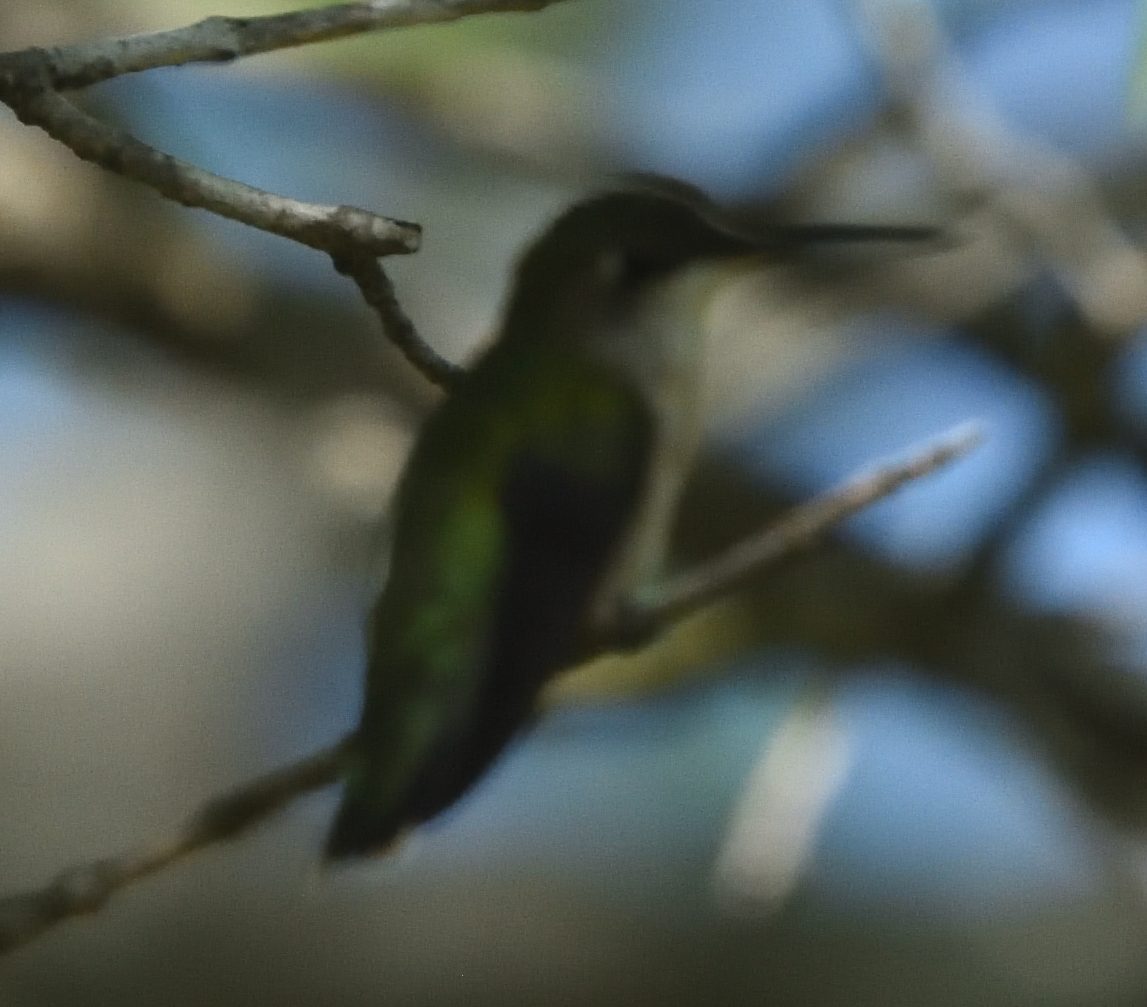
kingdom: Animalia
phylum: Chordata
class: Aves
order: Apodiformes
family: Trochilidae
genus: Archilochus
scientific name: Archilochus colubris
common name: Ruby-throated hummingbird
